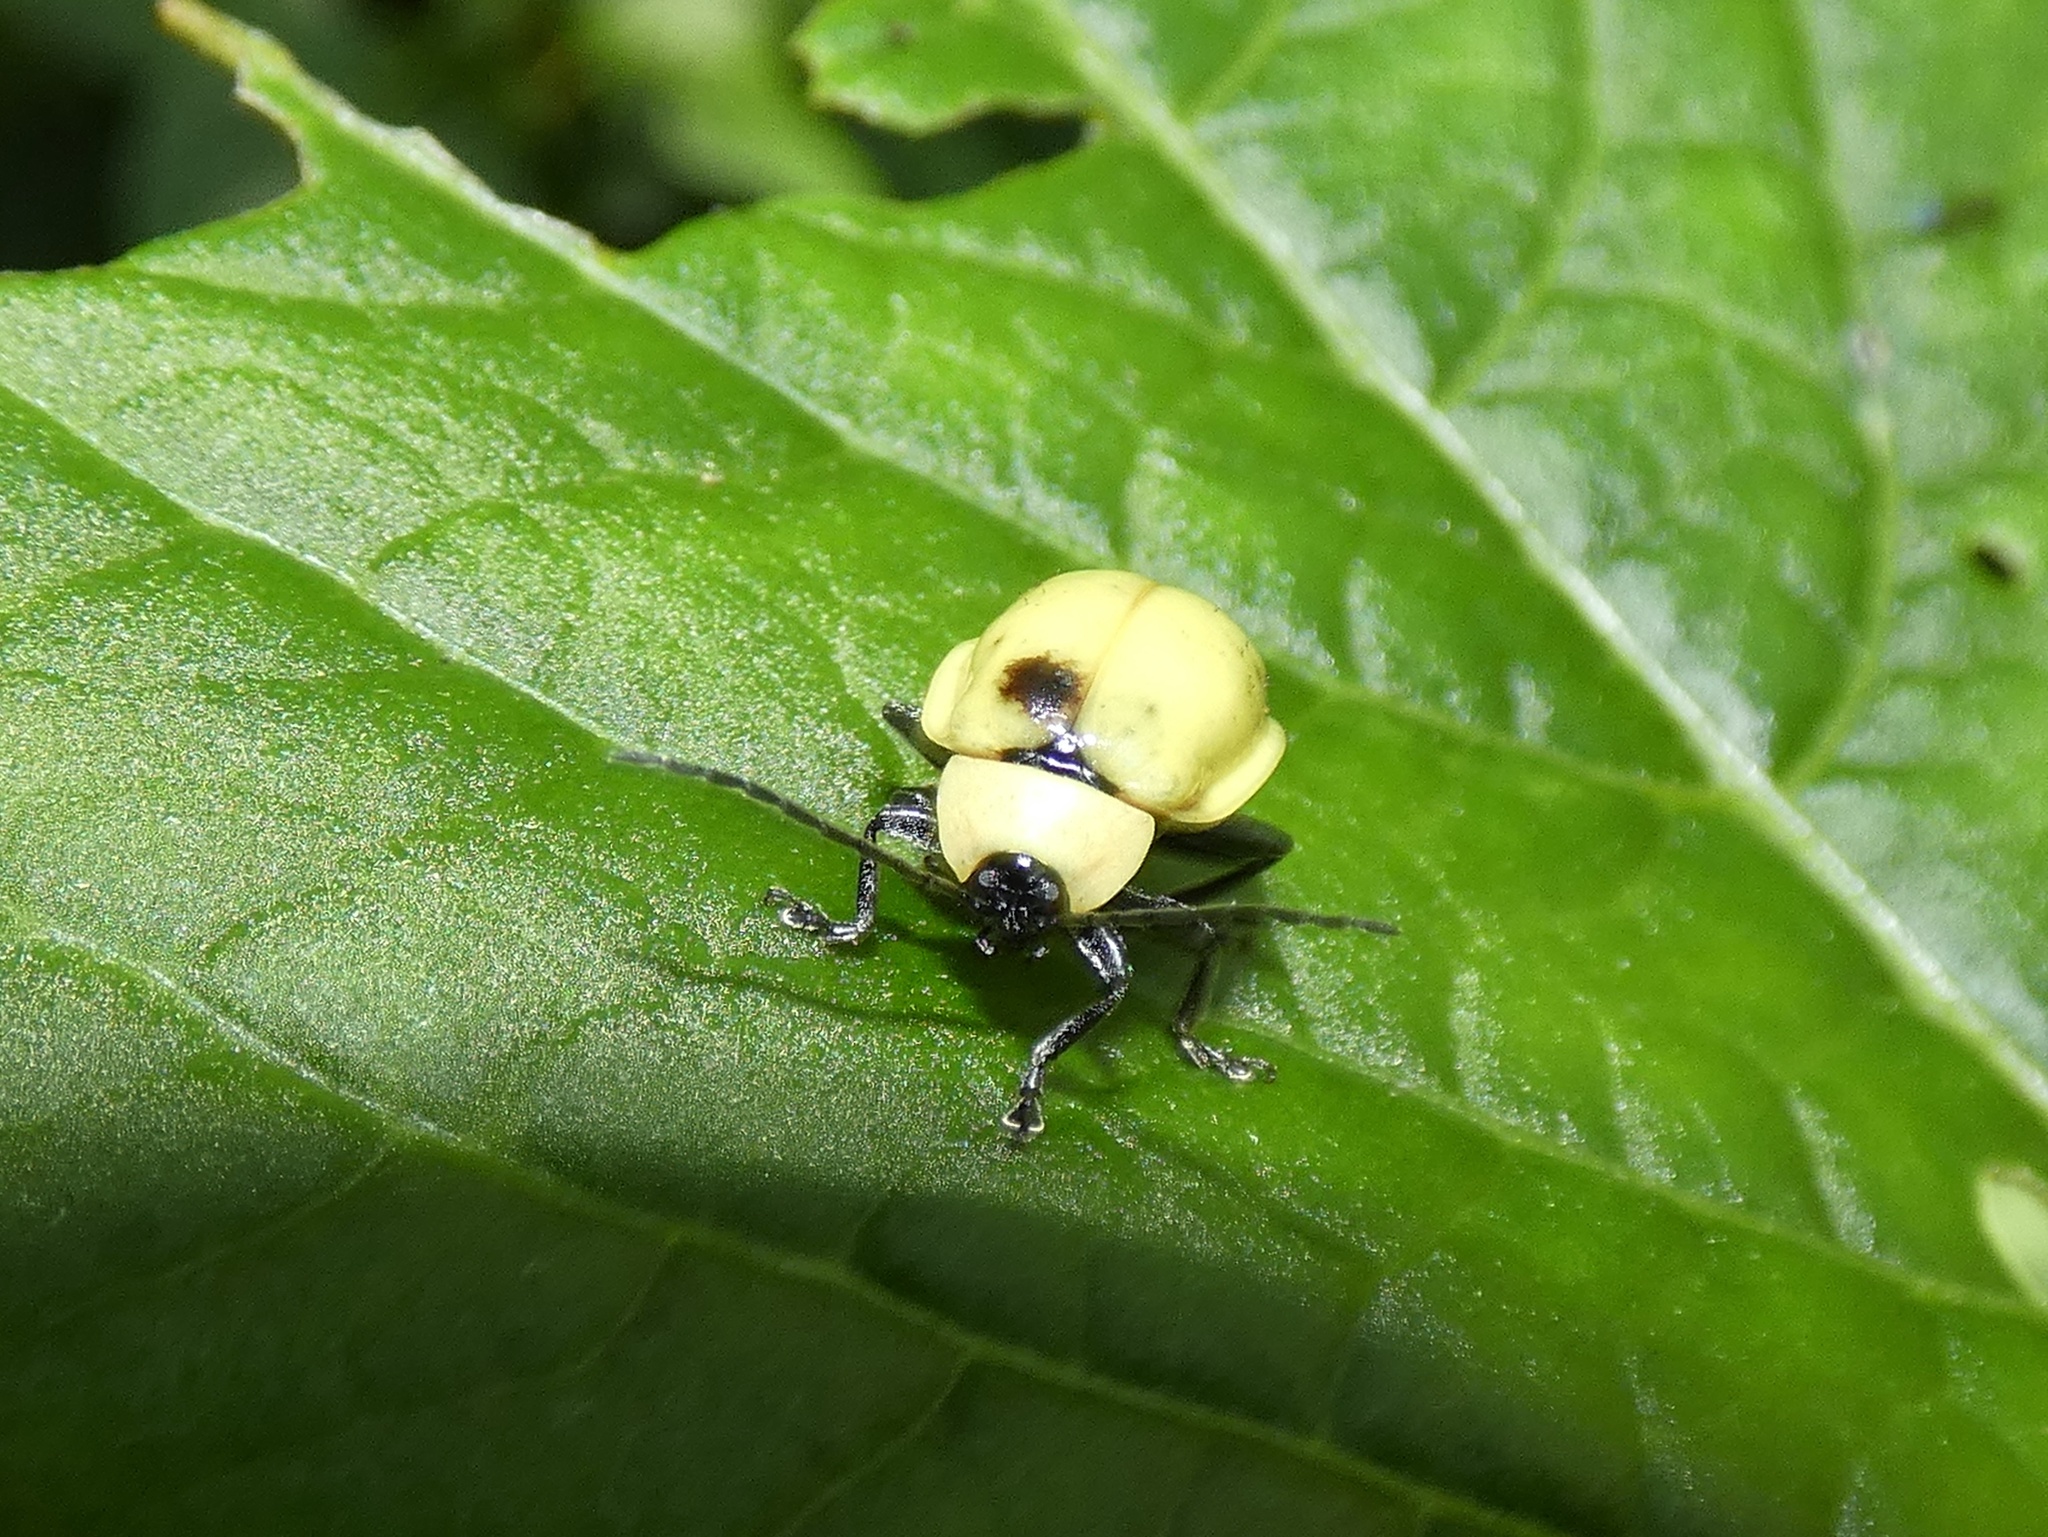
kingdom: Animalia
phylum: Arthropoda
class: Insecta
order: Coleoptera
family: Chrysomelidae
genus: Asphaera
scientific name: Asphaera
